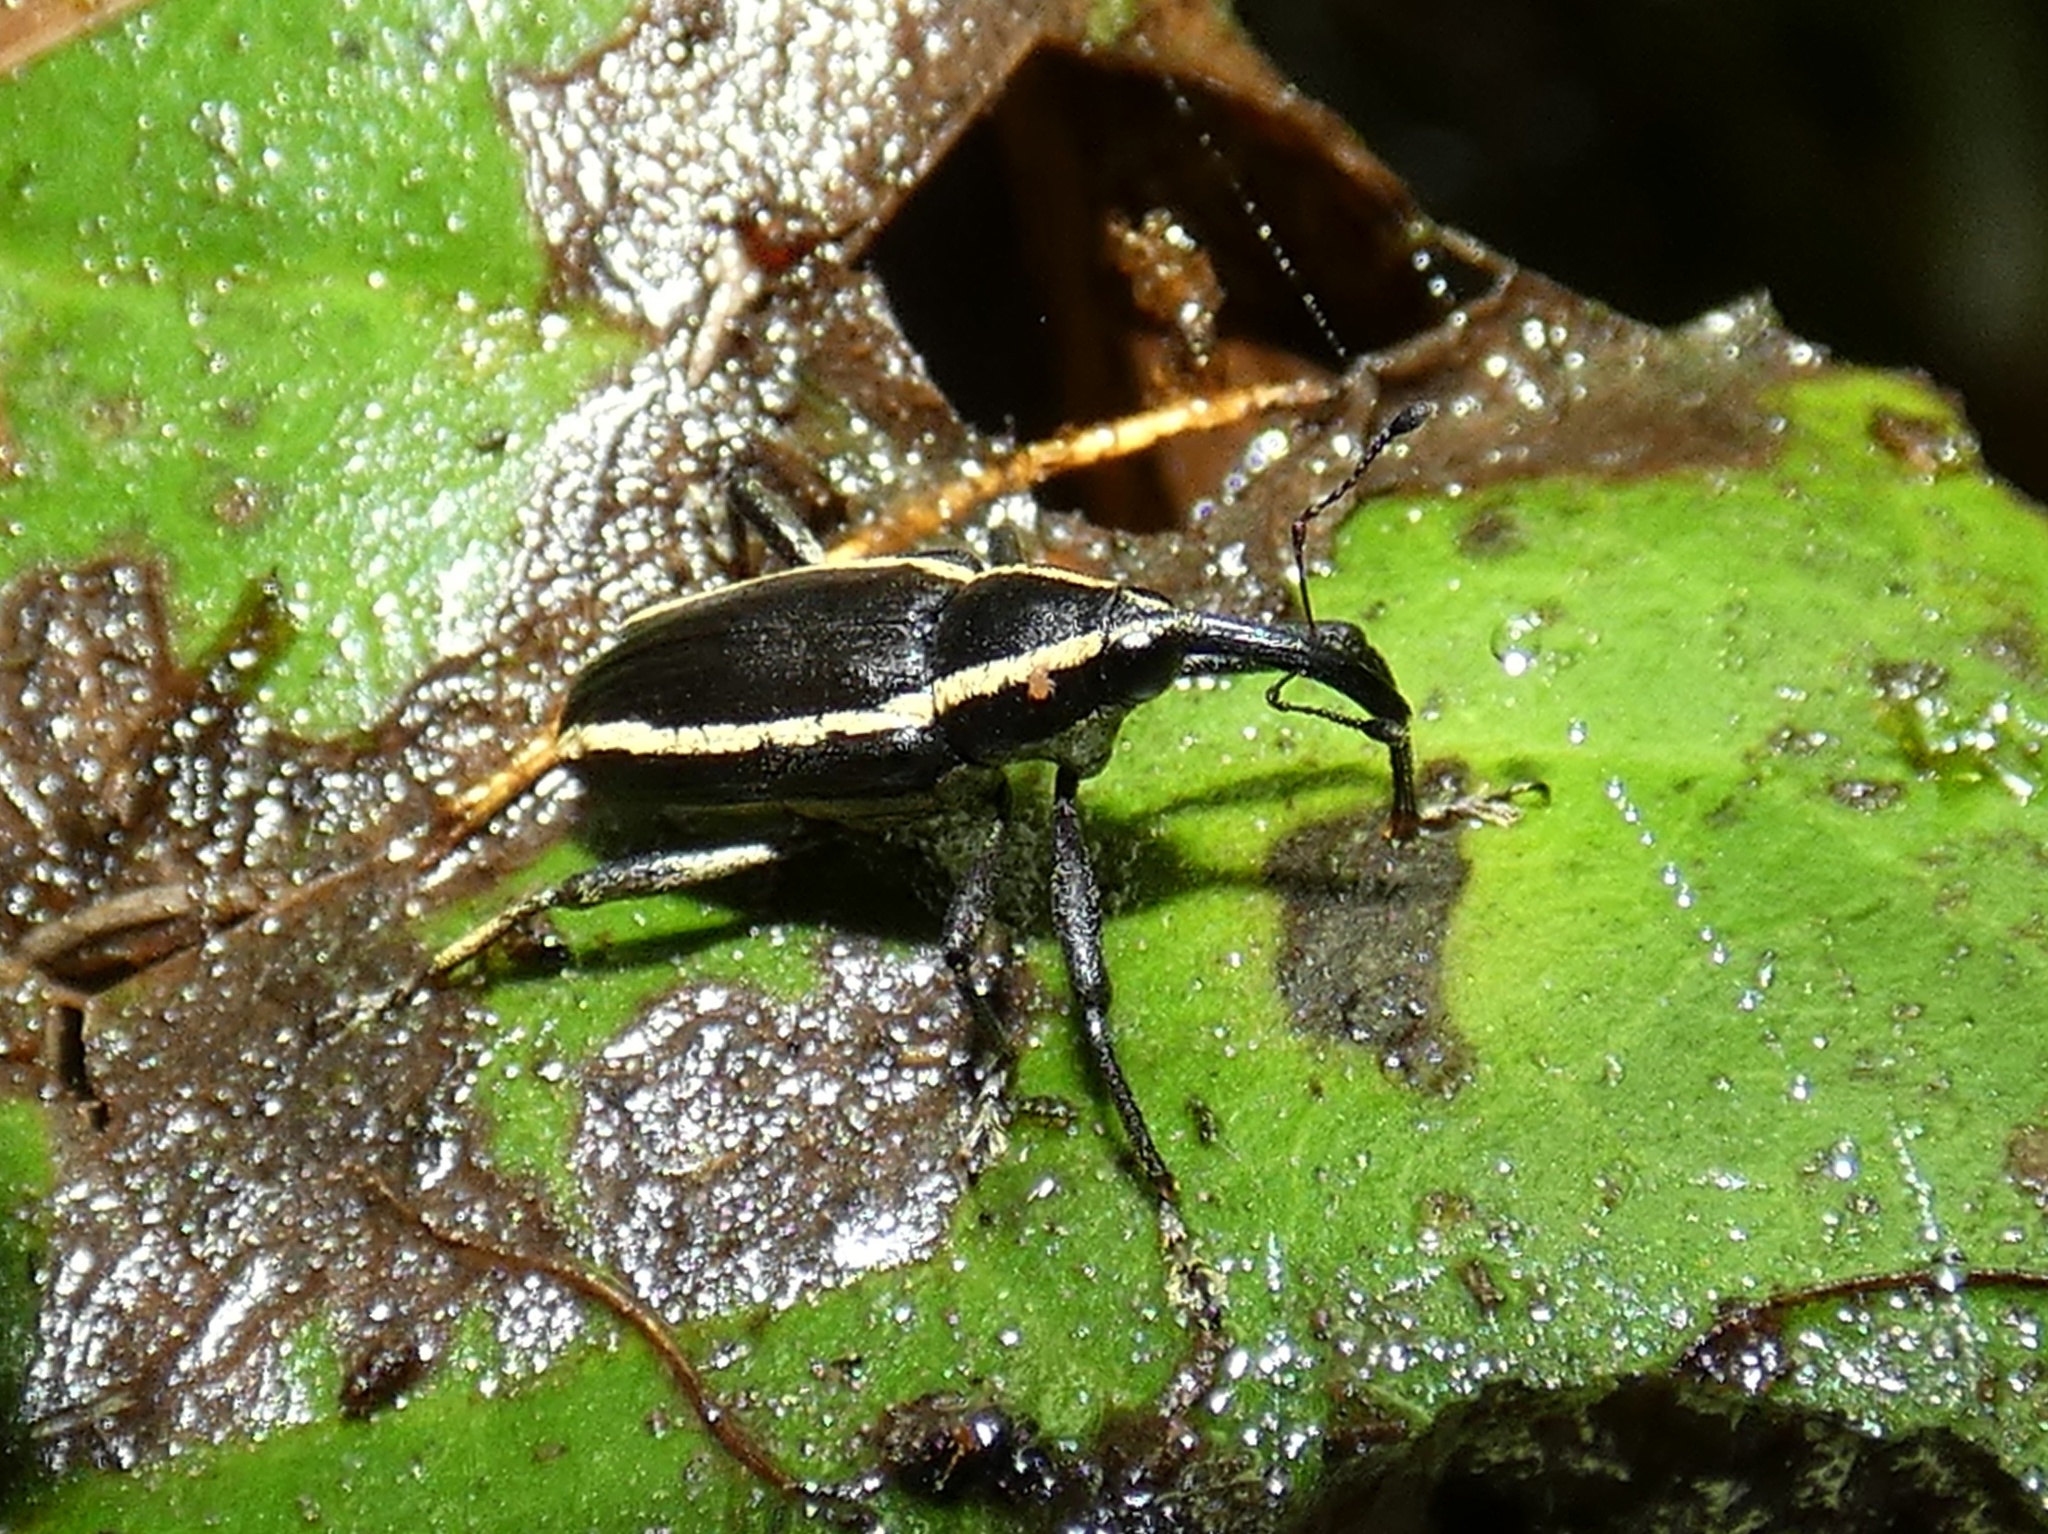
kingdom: Animalia
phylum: Arthropoda
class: Insecta
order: Coleoptera
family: Curculionidae
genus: Embates
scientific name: Embates leucopleura
